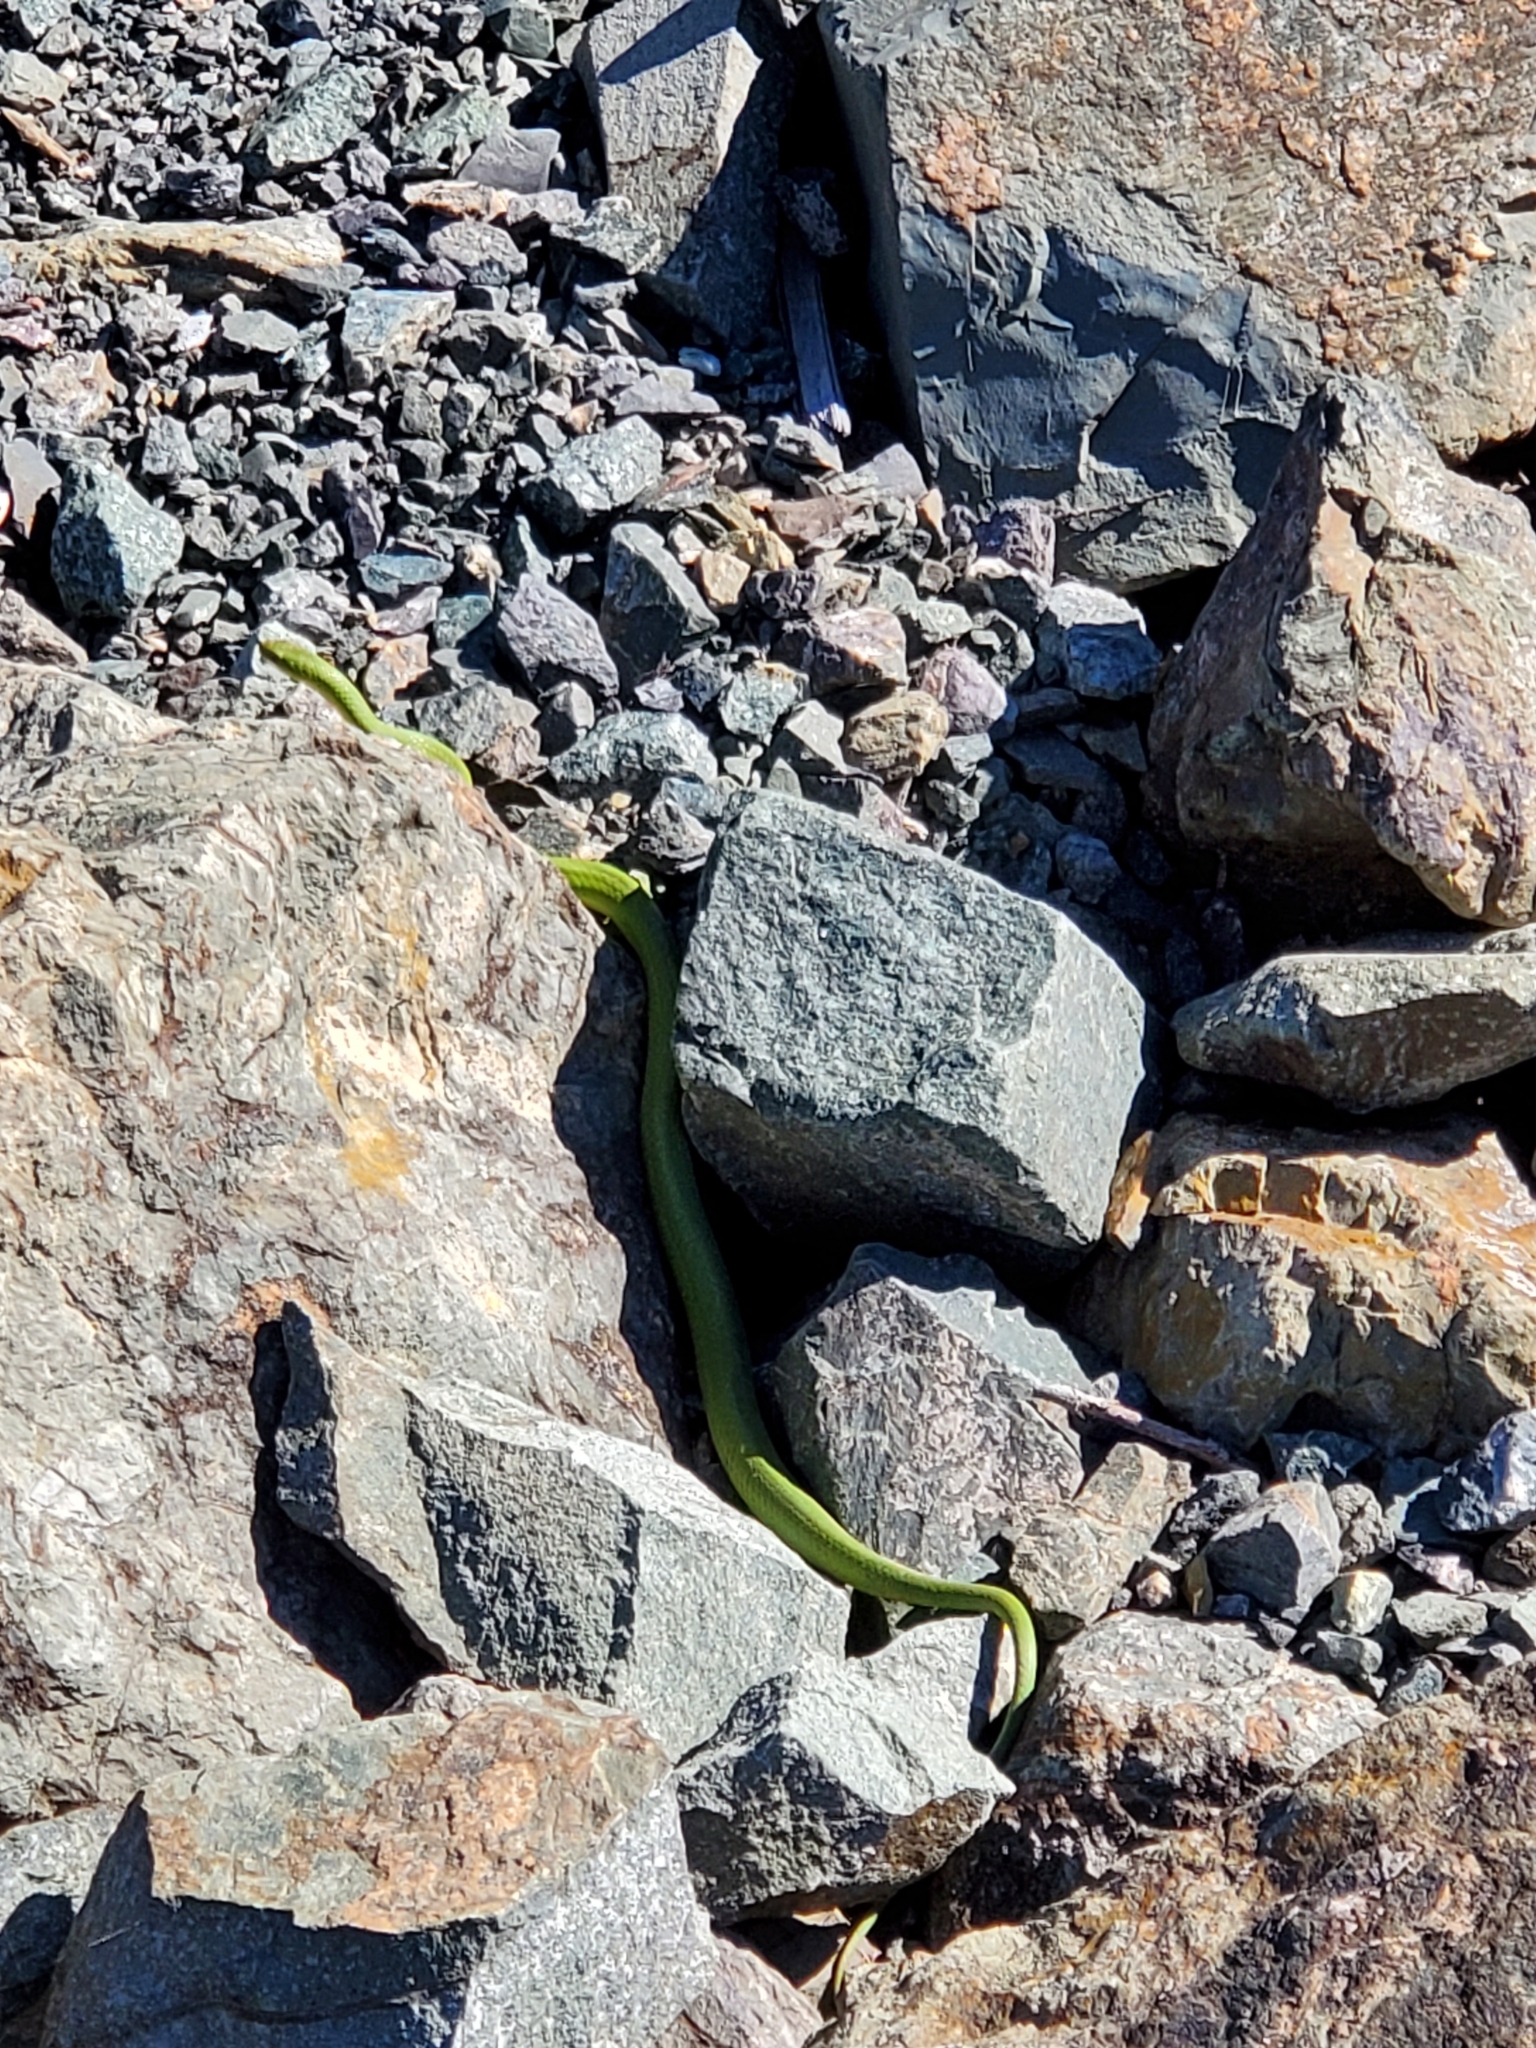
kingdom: Animalia
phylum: Chordata
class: Squamata
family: Colubridae
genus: Opheodrys
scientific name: Opheodrys vernalis
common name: Smooth green snake
